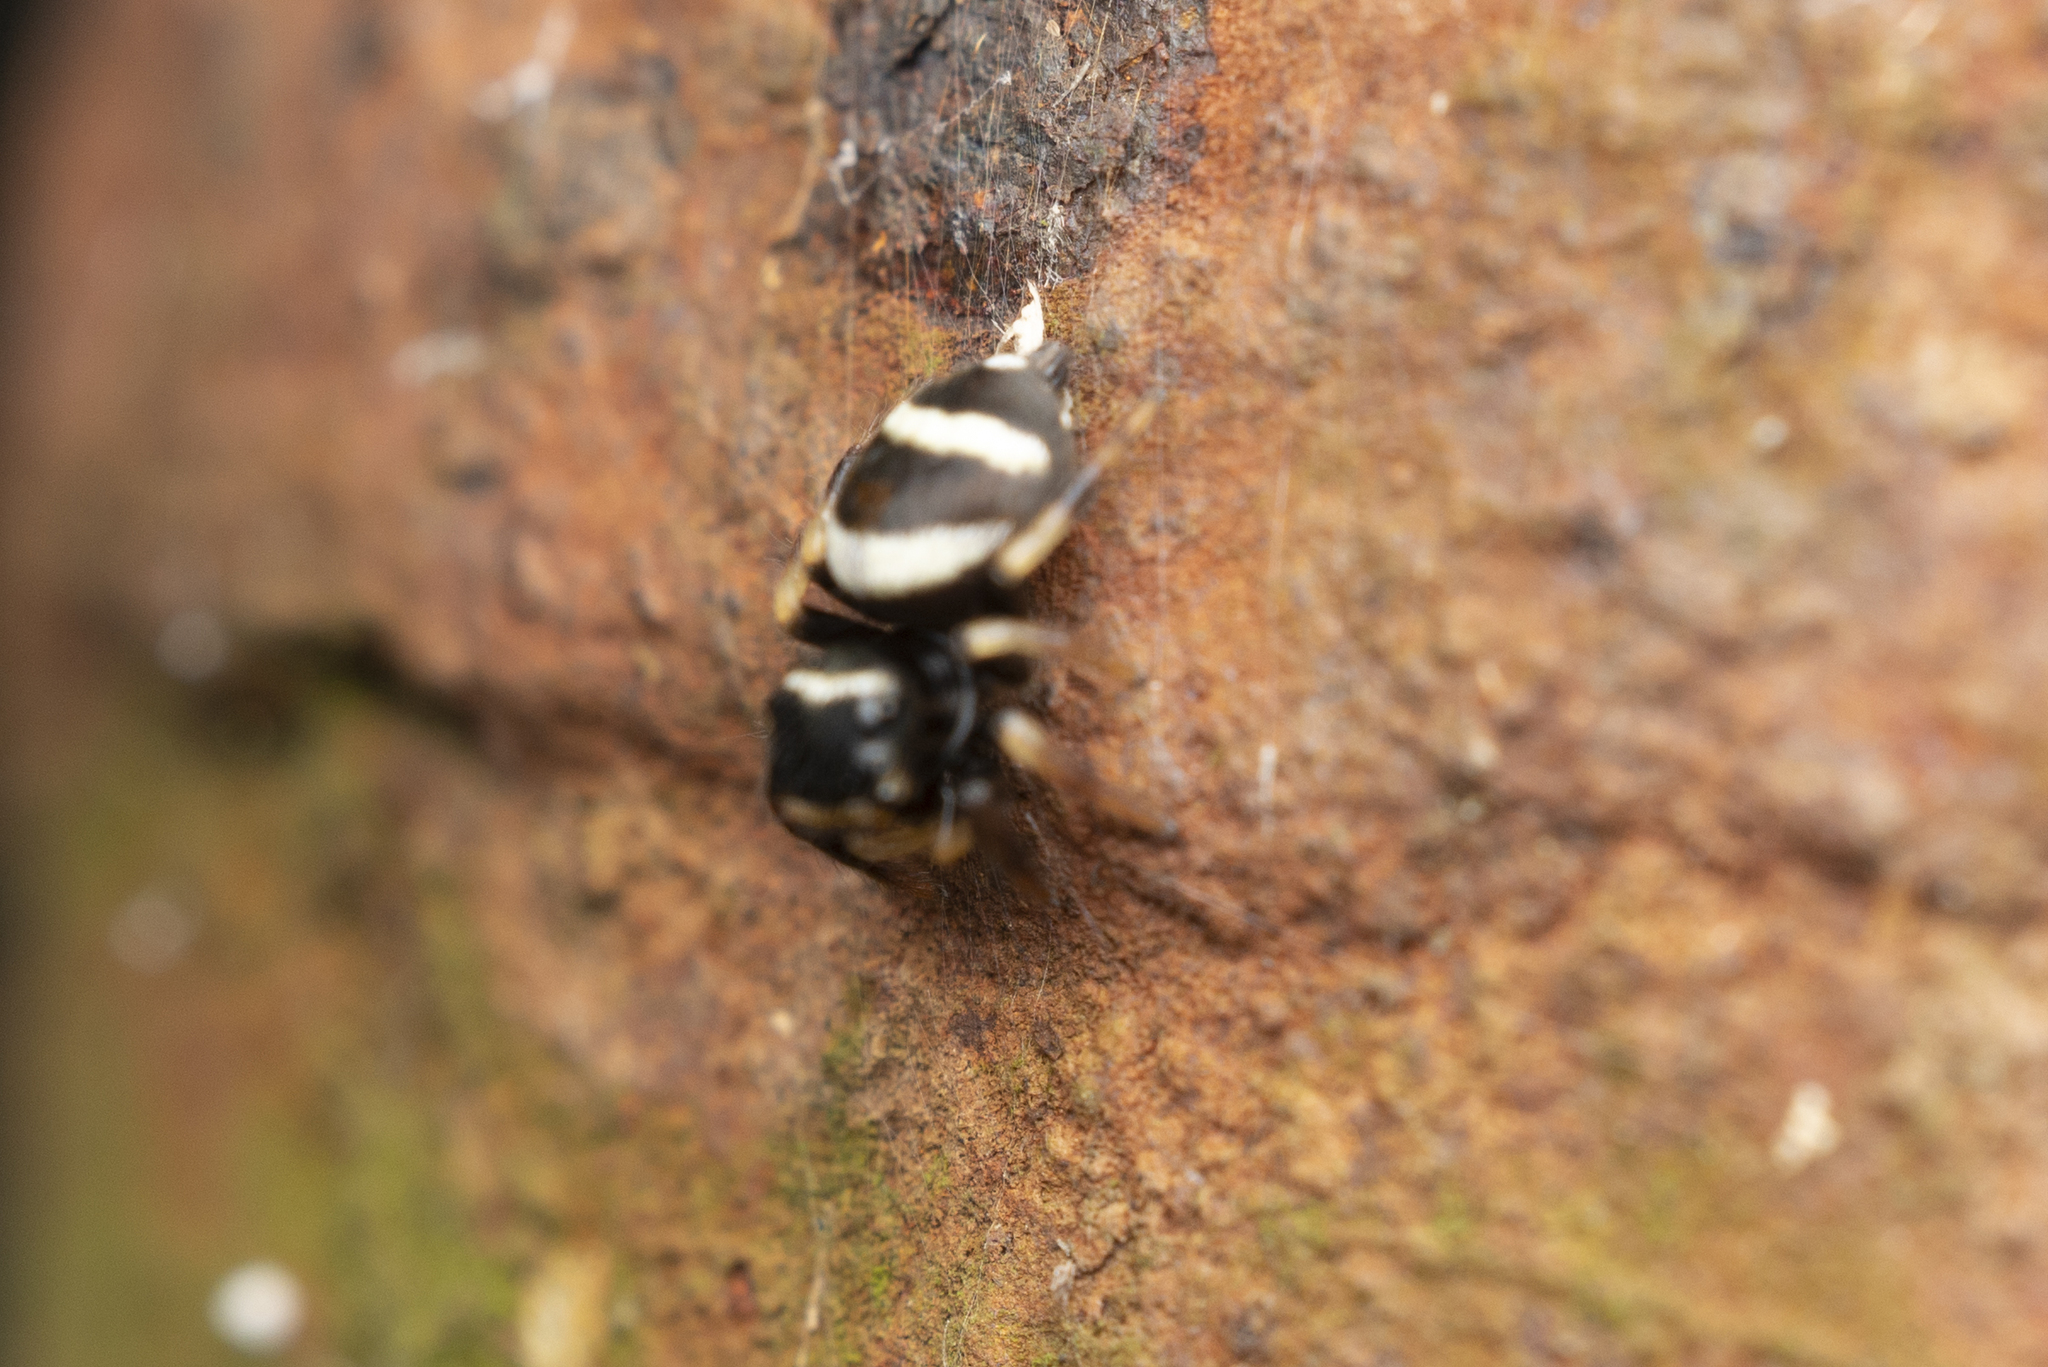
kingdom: Animalia
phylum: Arthropoda
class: Arachnida
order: Araneae
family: Salticidae
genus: Ptocasius
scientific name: Ptocasius strupifer
